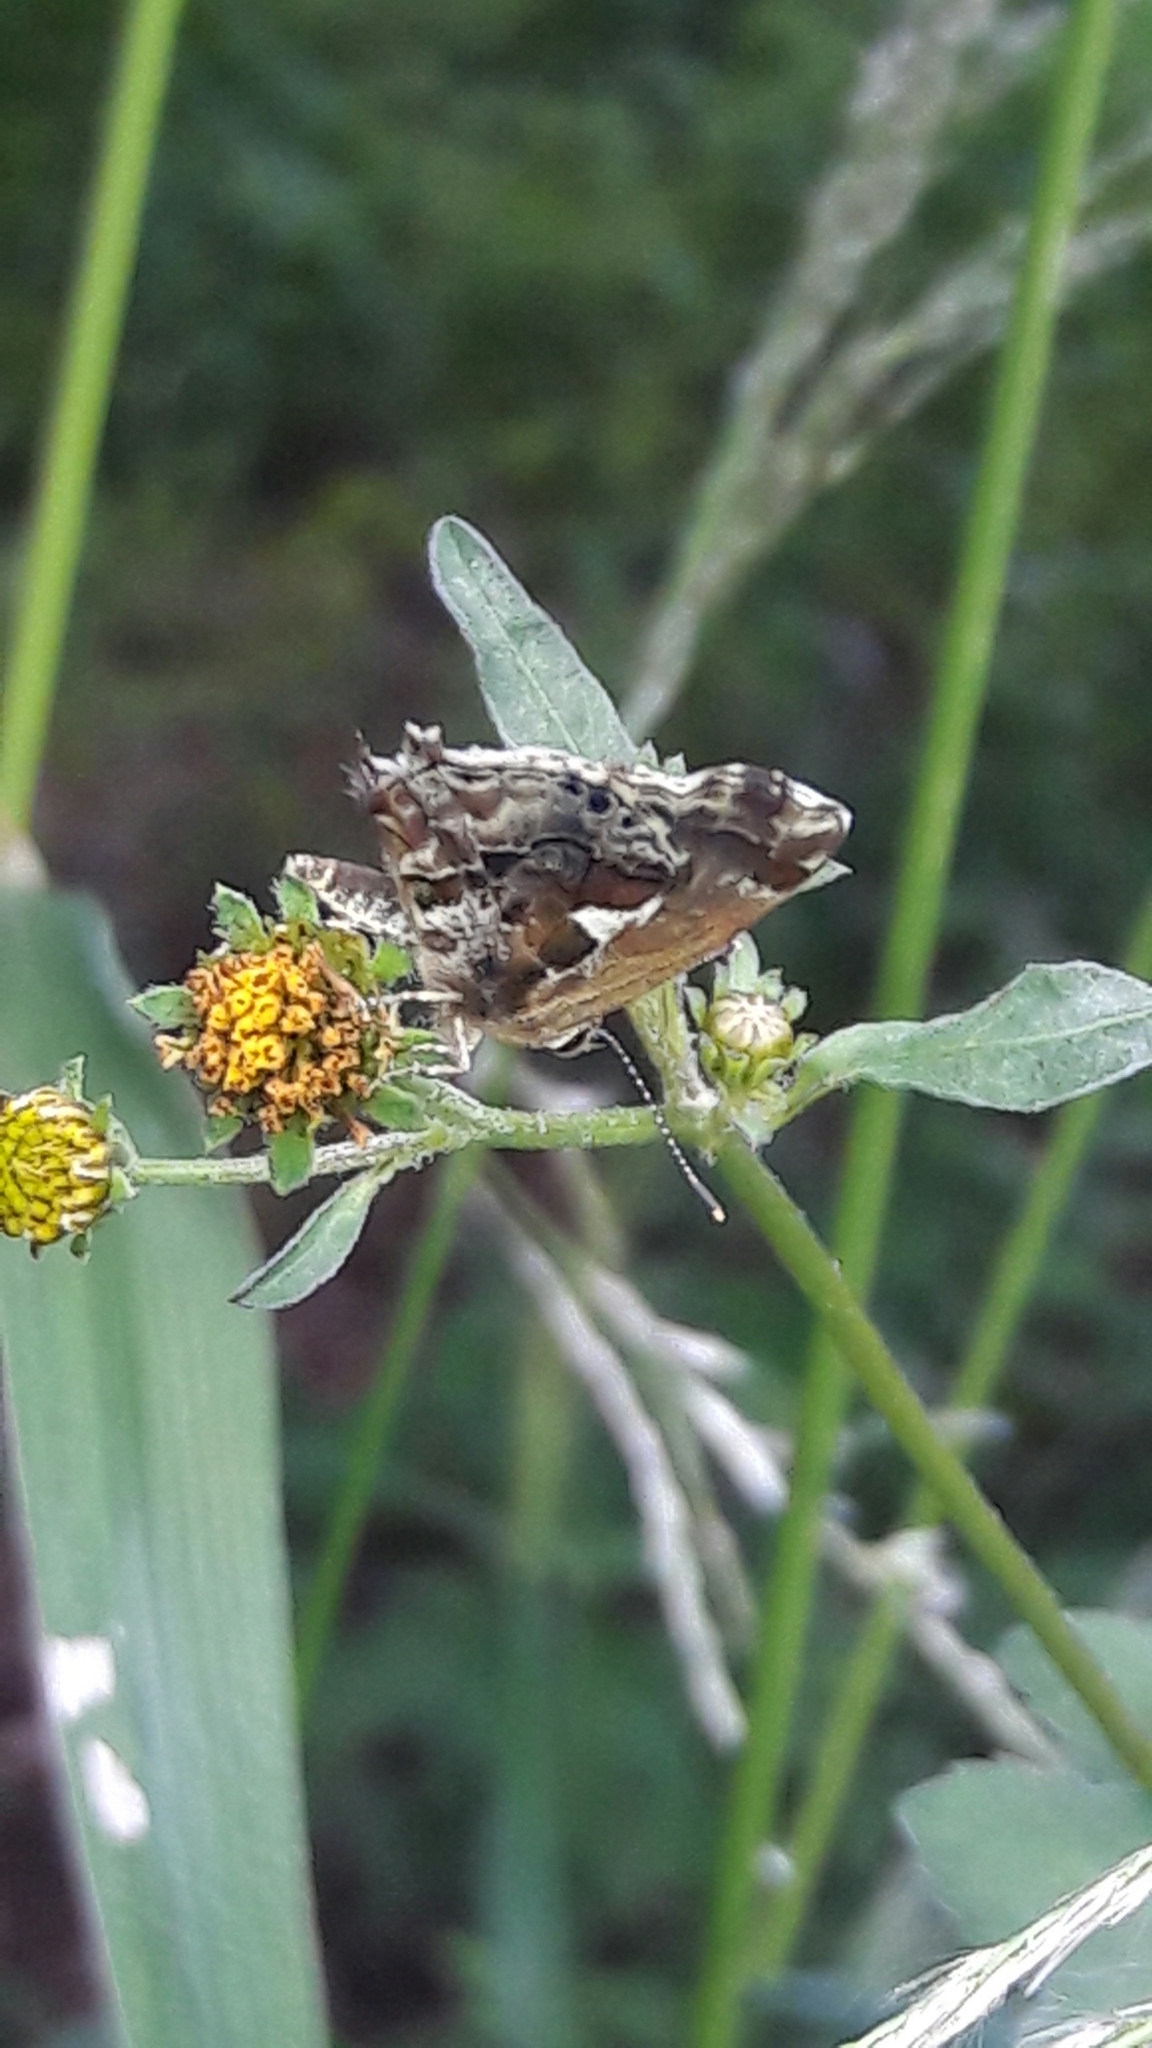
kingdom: Animalia
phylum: Arthropoda
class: Insecta
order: Lepidoptera
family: Lycaenidae
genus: Strymon
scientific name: Strymon
